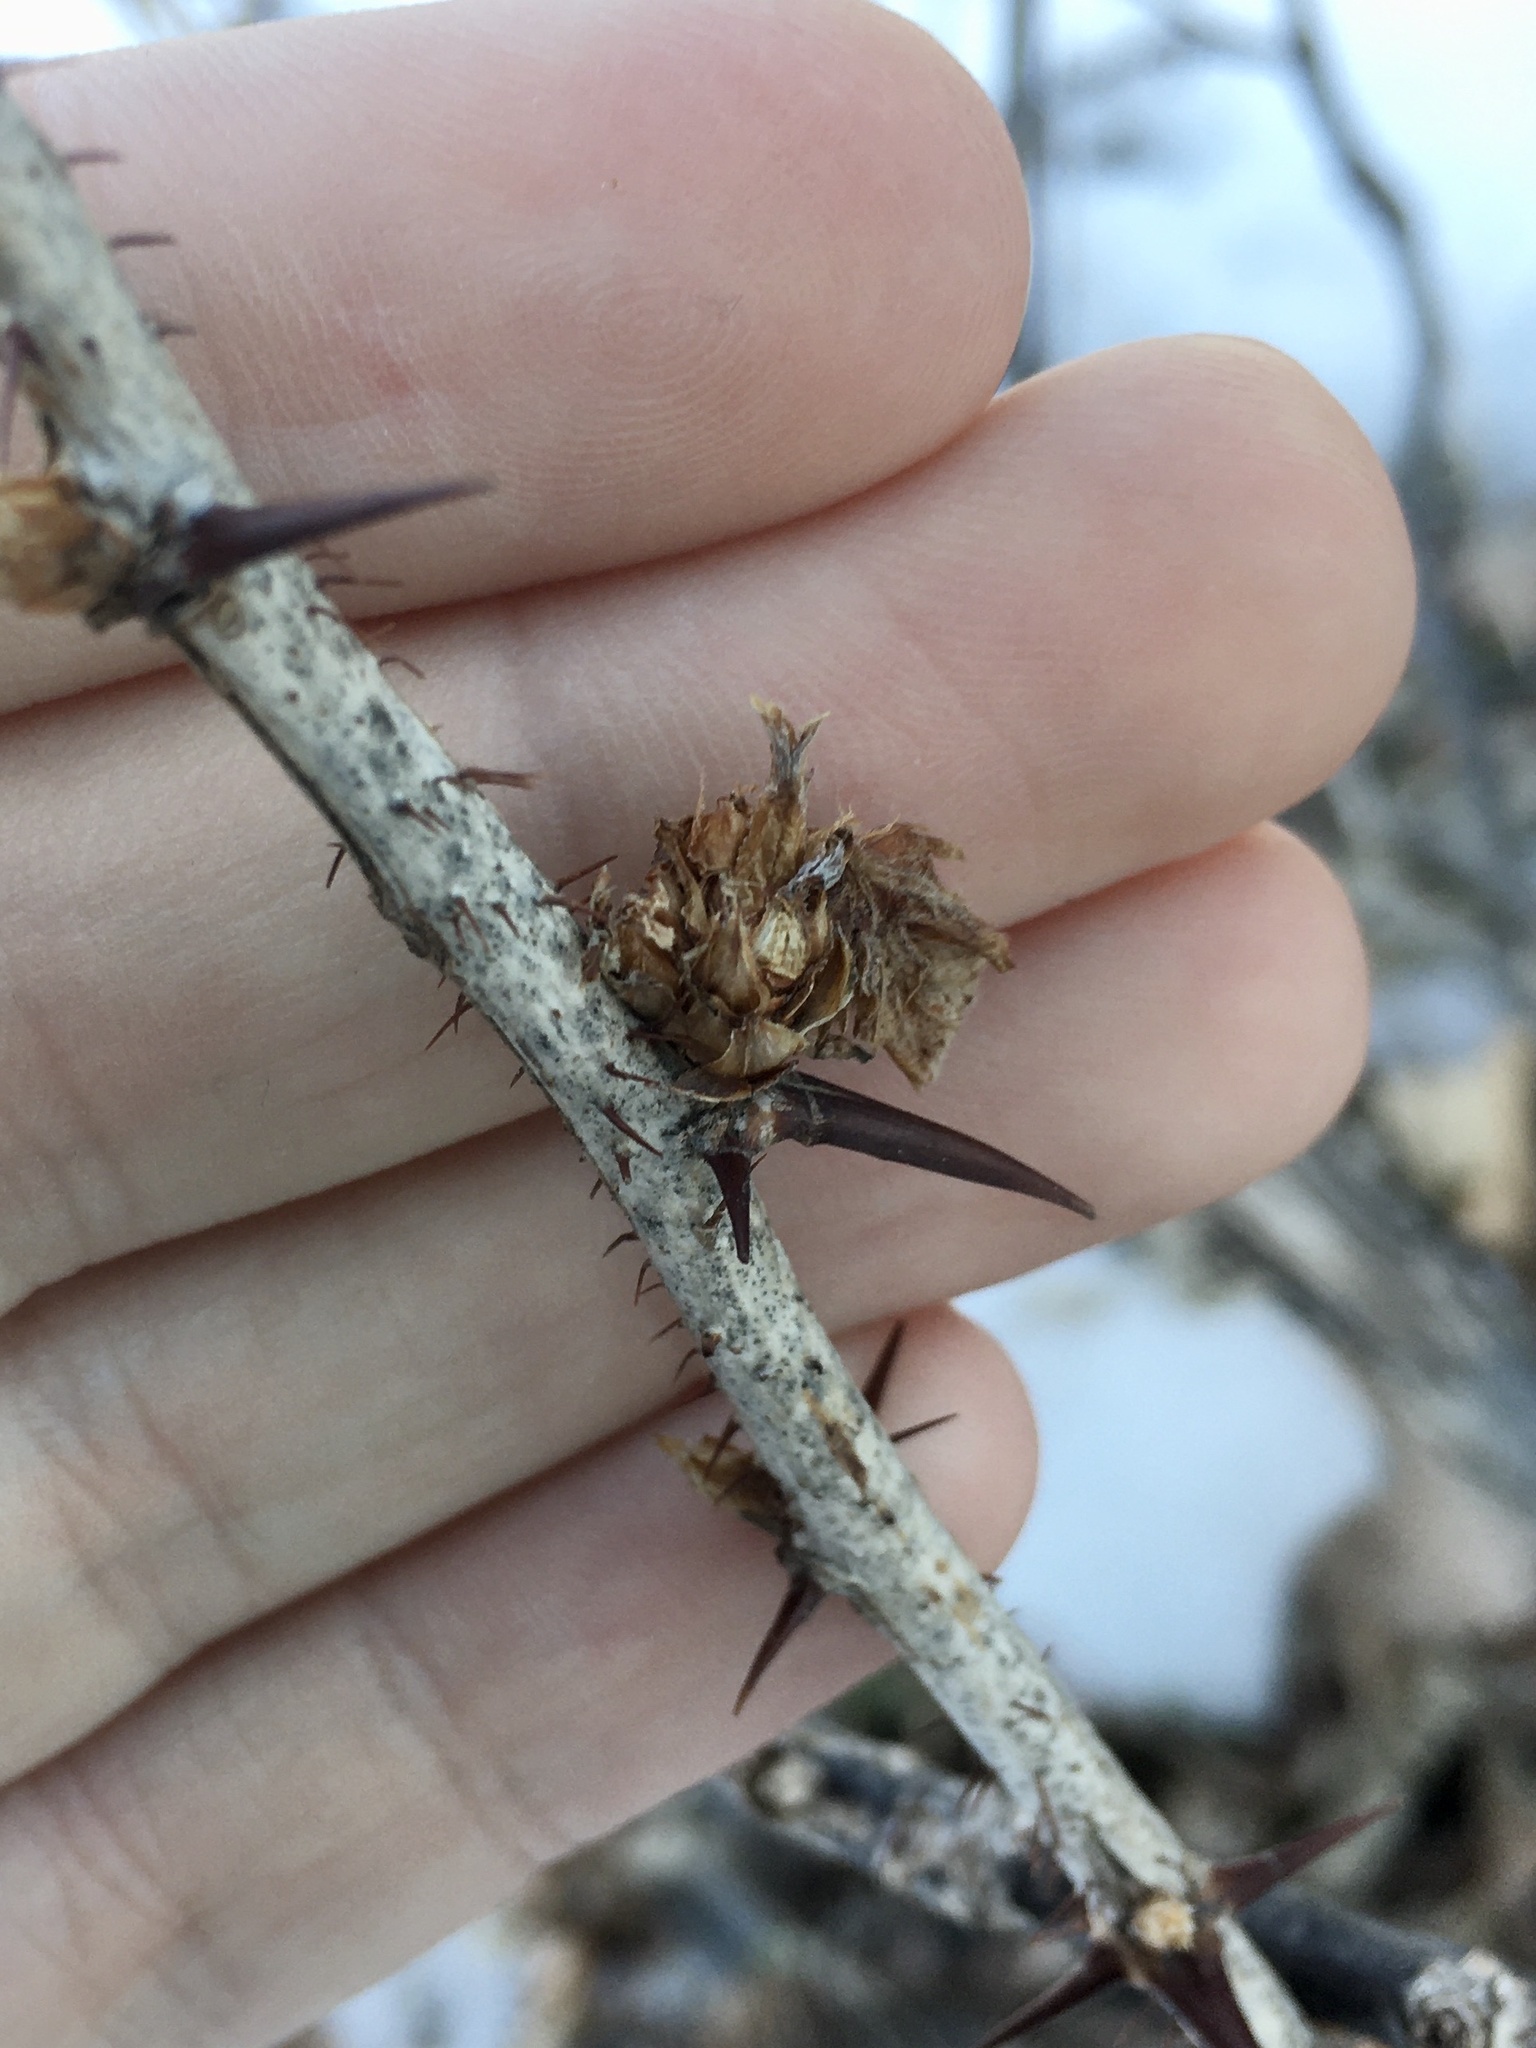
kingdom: Animalia
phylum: Arthropoda
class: Insecta
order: Diptera
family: Cecidomyiidae
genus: Rhopalomyia
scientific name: Rhopalomyia grossulariae
